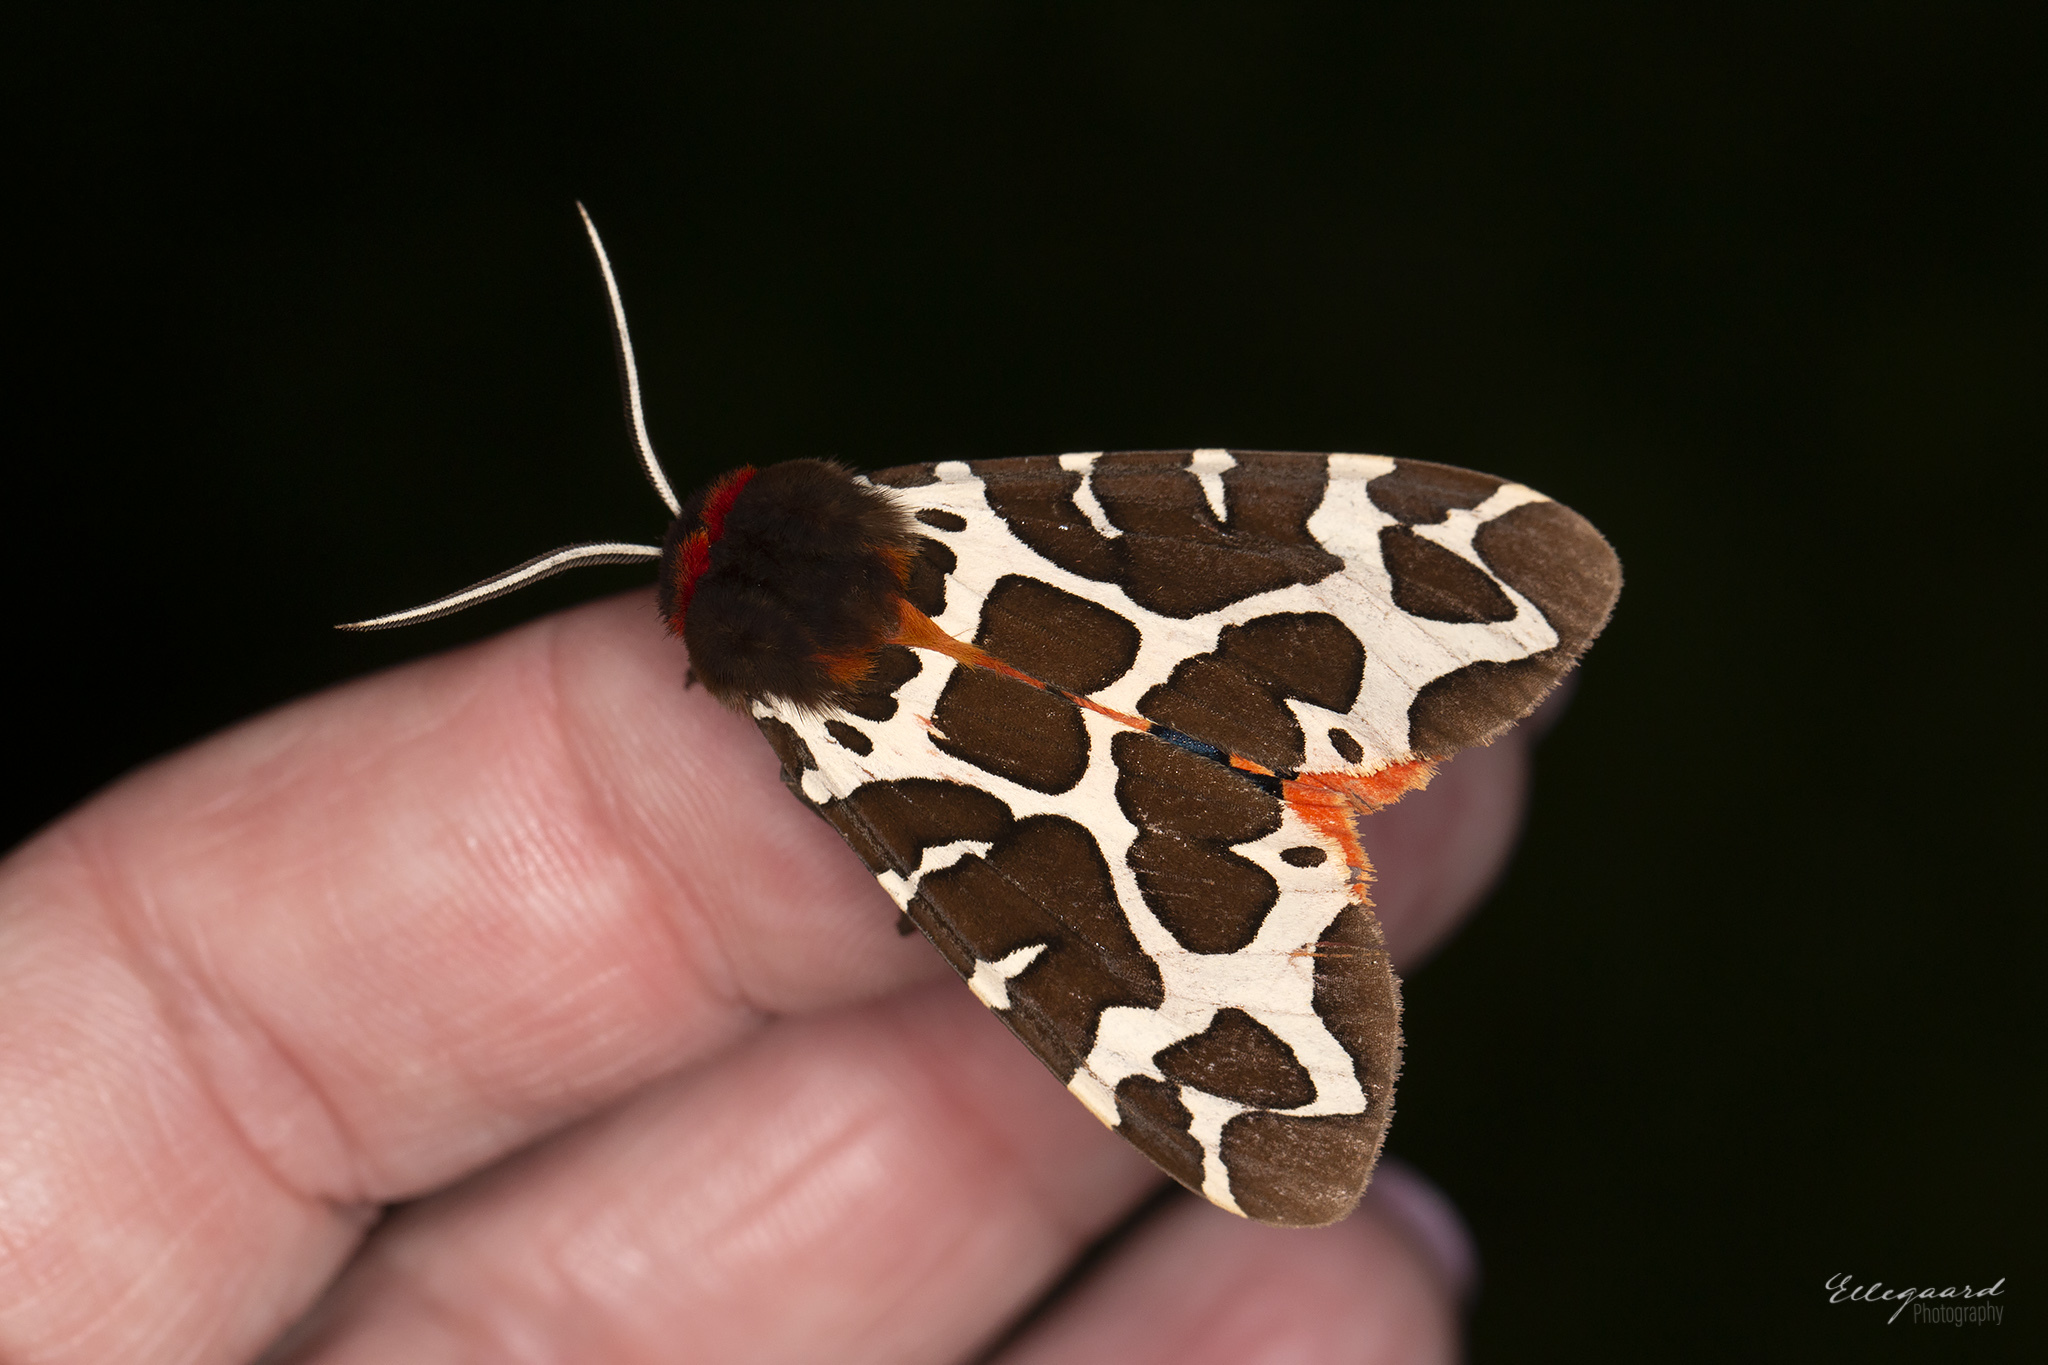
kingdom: Animalia
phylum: Arthropoda
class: Insecta
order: Lepidoptera
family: Erebidae
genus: Arctia
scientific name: Arctia caja
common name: Garden tiger
